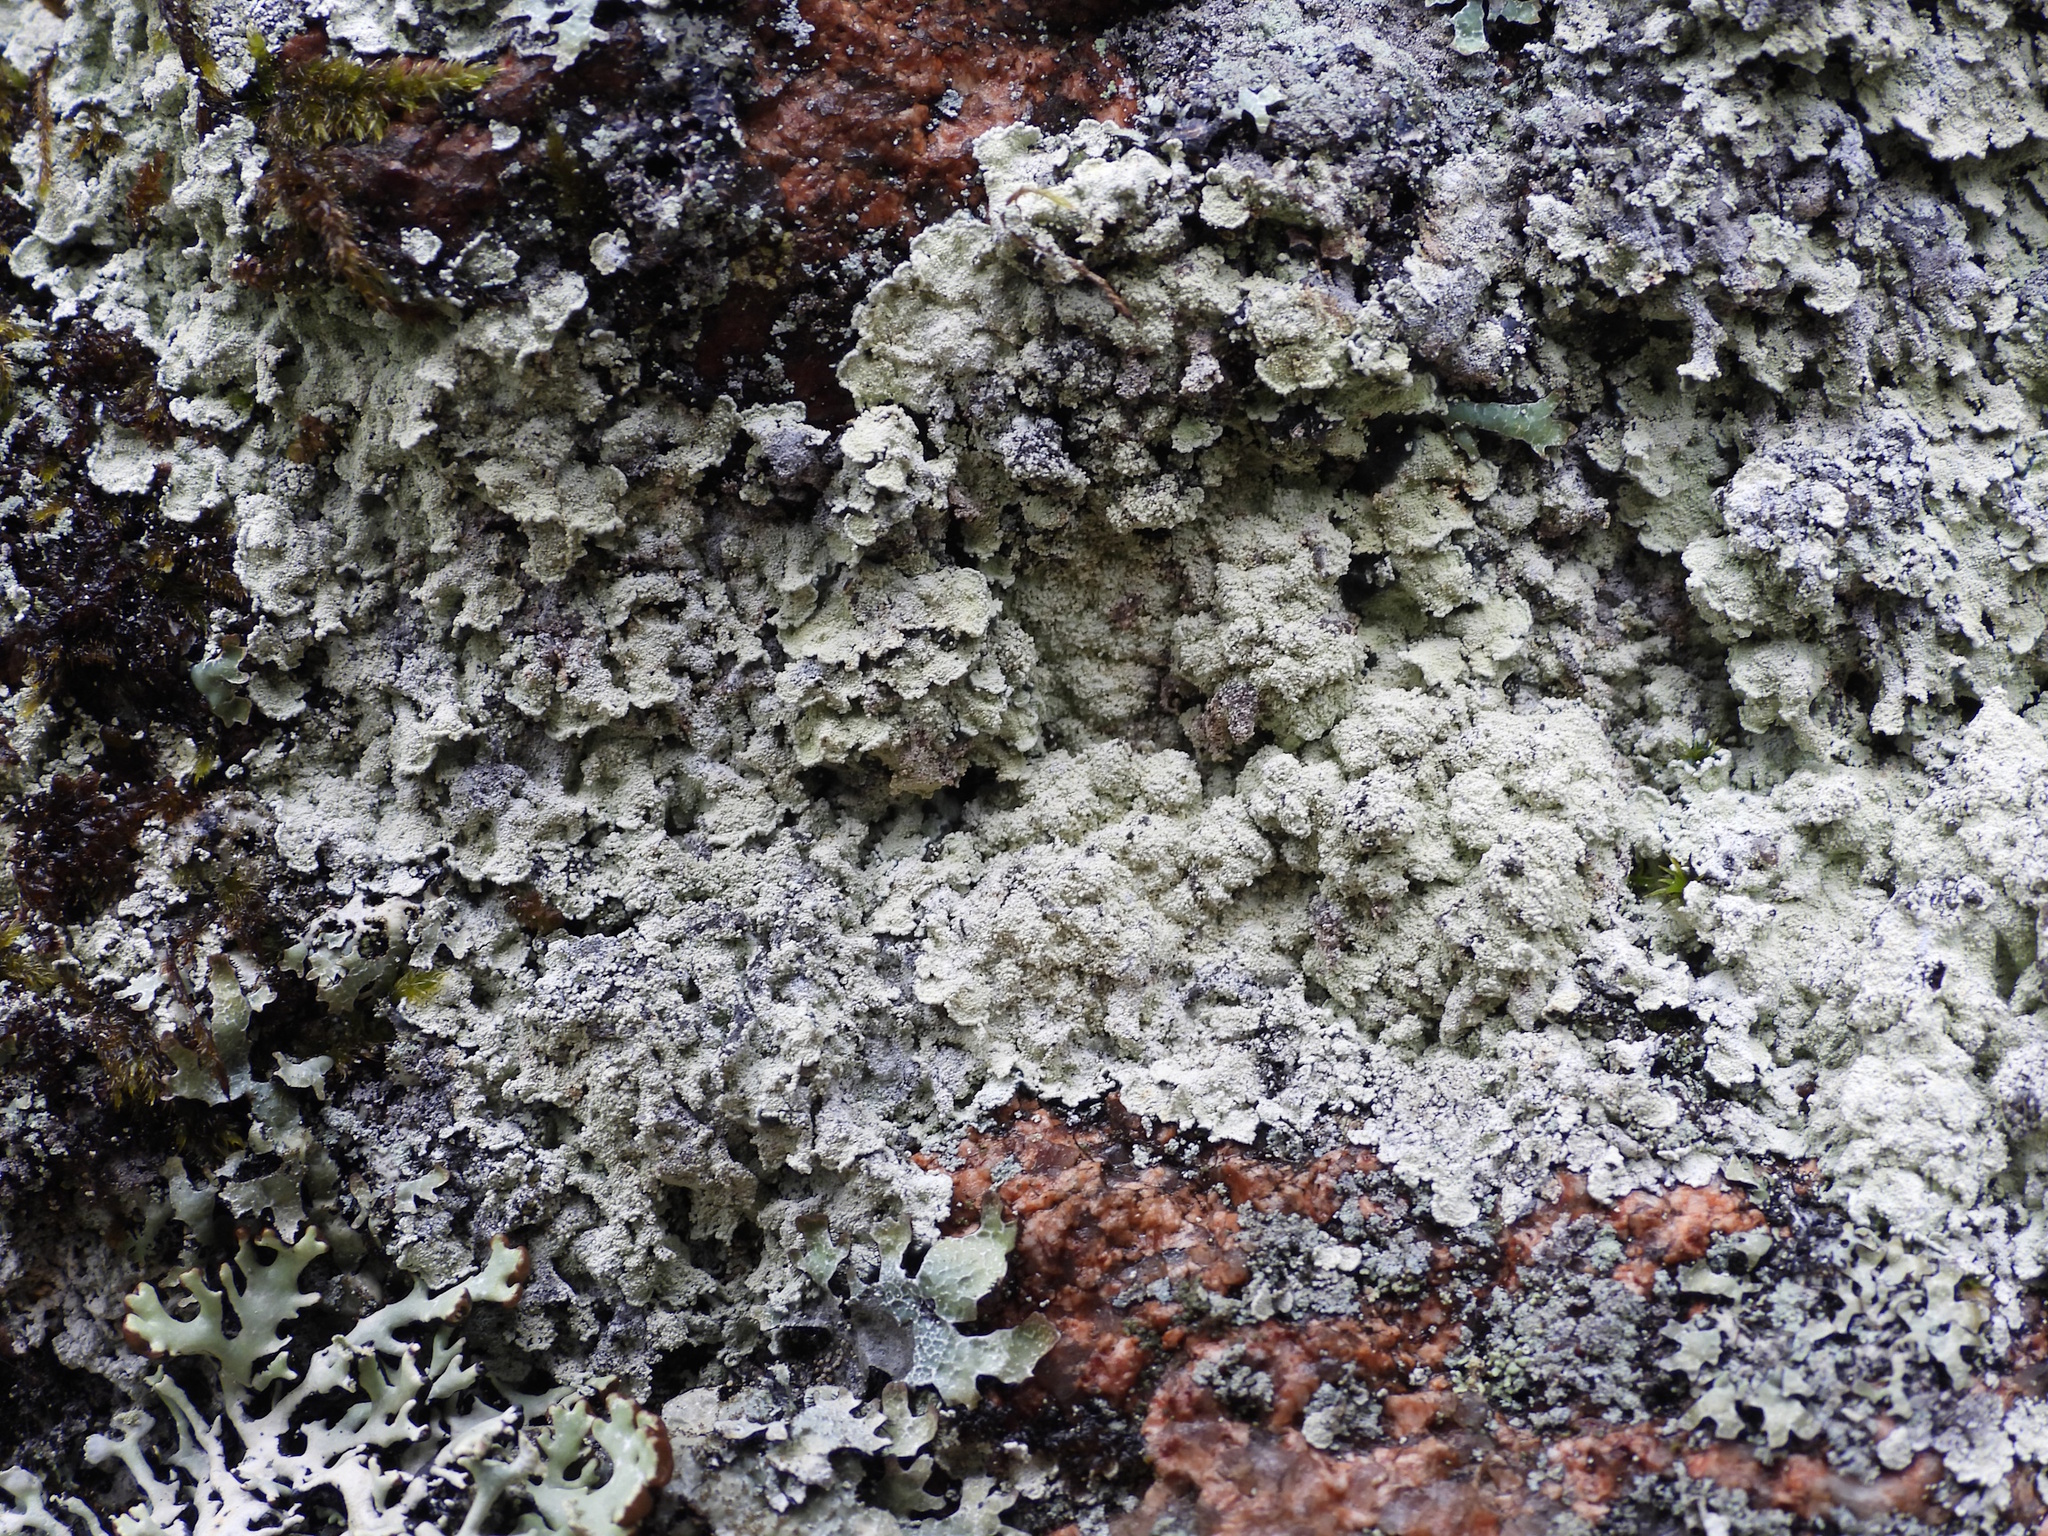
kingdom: Fungi
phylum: Ascomycota
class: Lecanoromycetes
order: Lecanorales
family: Stereocaulaceae
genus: Lepraria
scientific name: Lepraria membranacea
